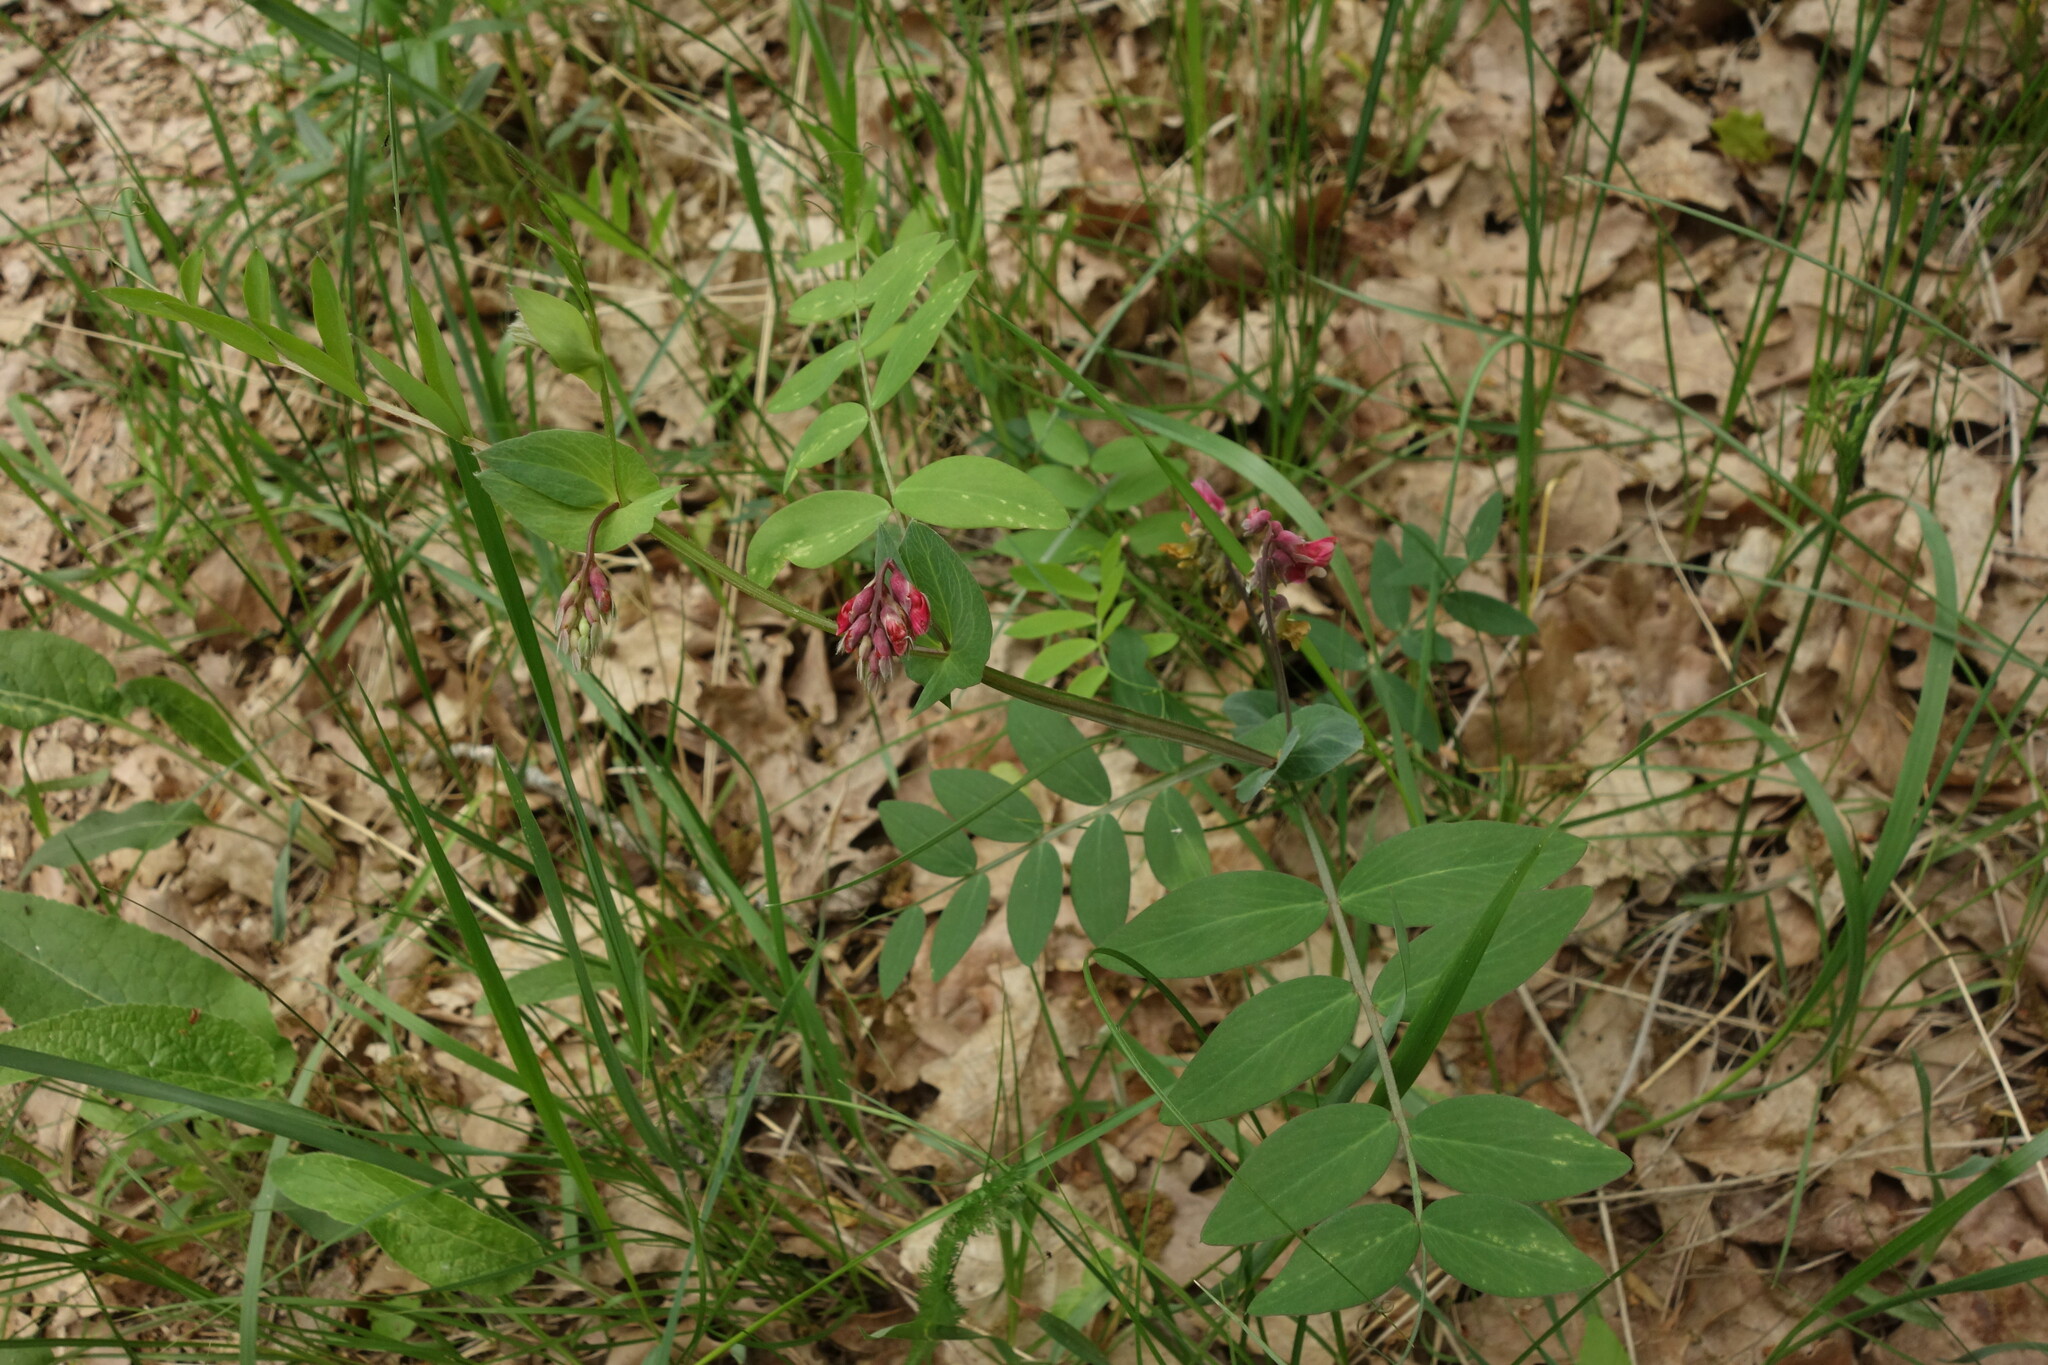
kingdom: Plantae
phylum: Tracheophyta
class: Magnoliopsida
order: Fabales
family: Fabaceae
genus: Lathyrus
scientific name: Lathyrus pisiformis
